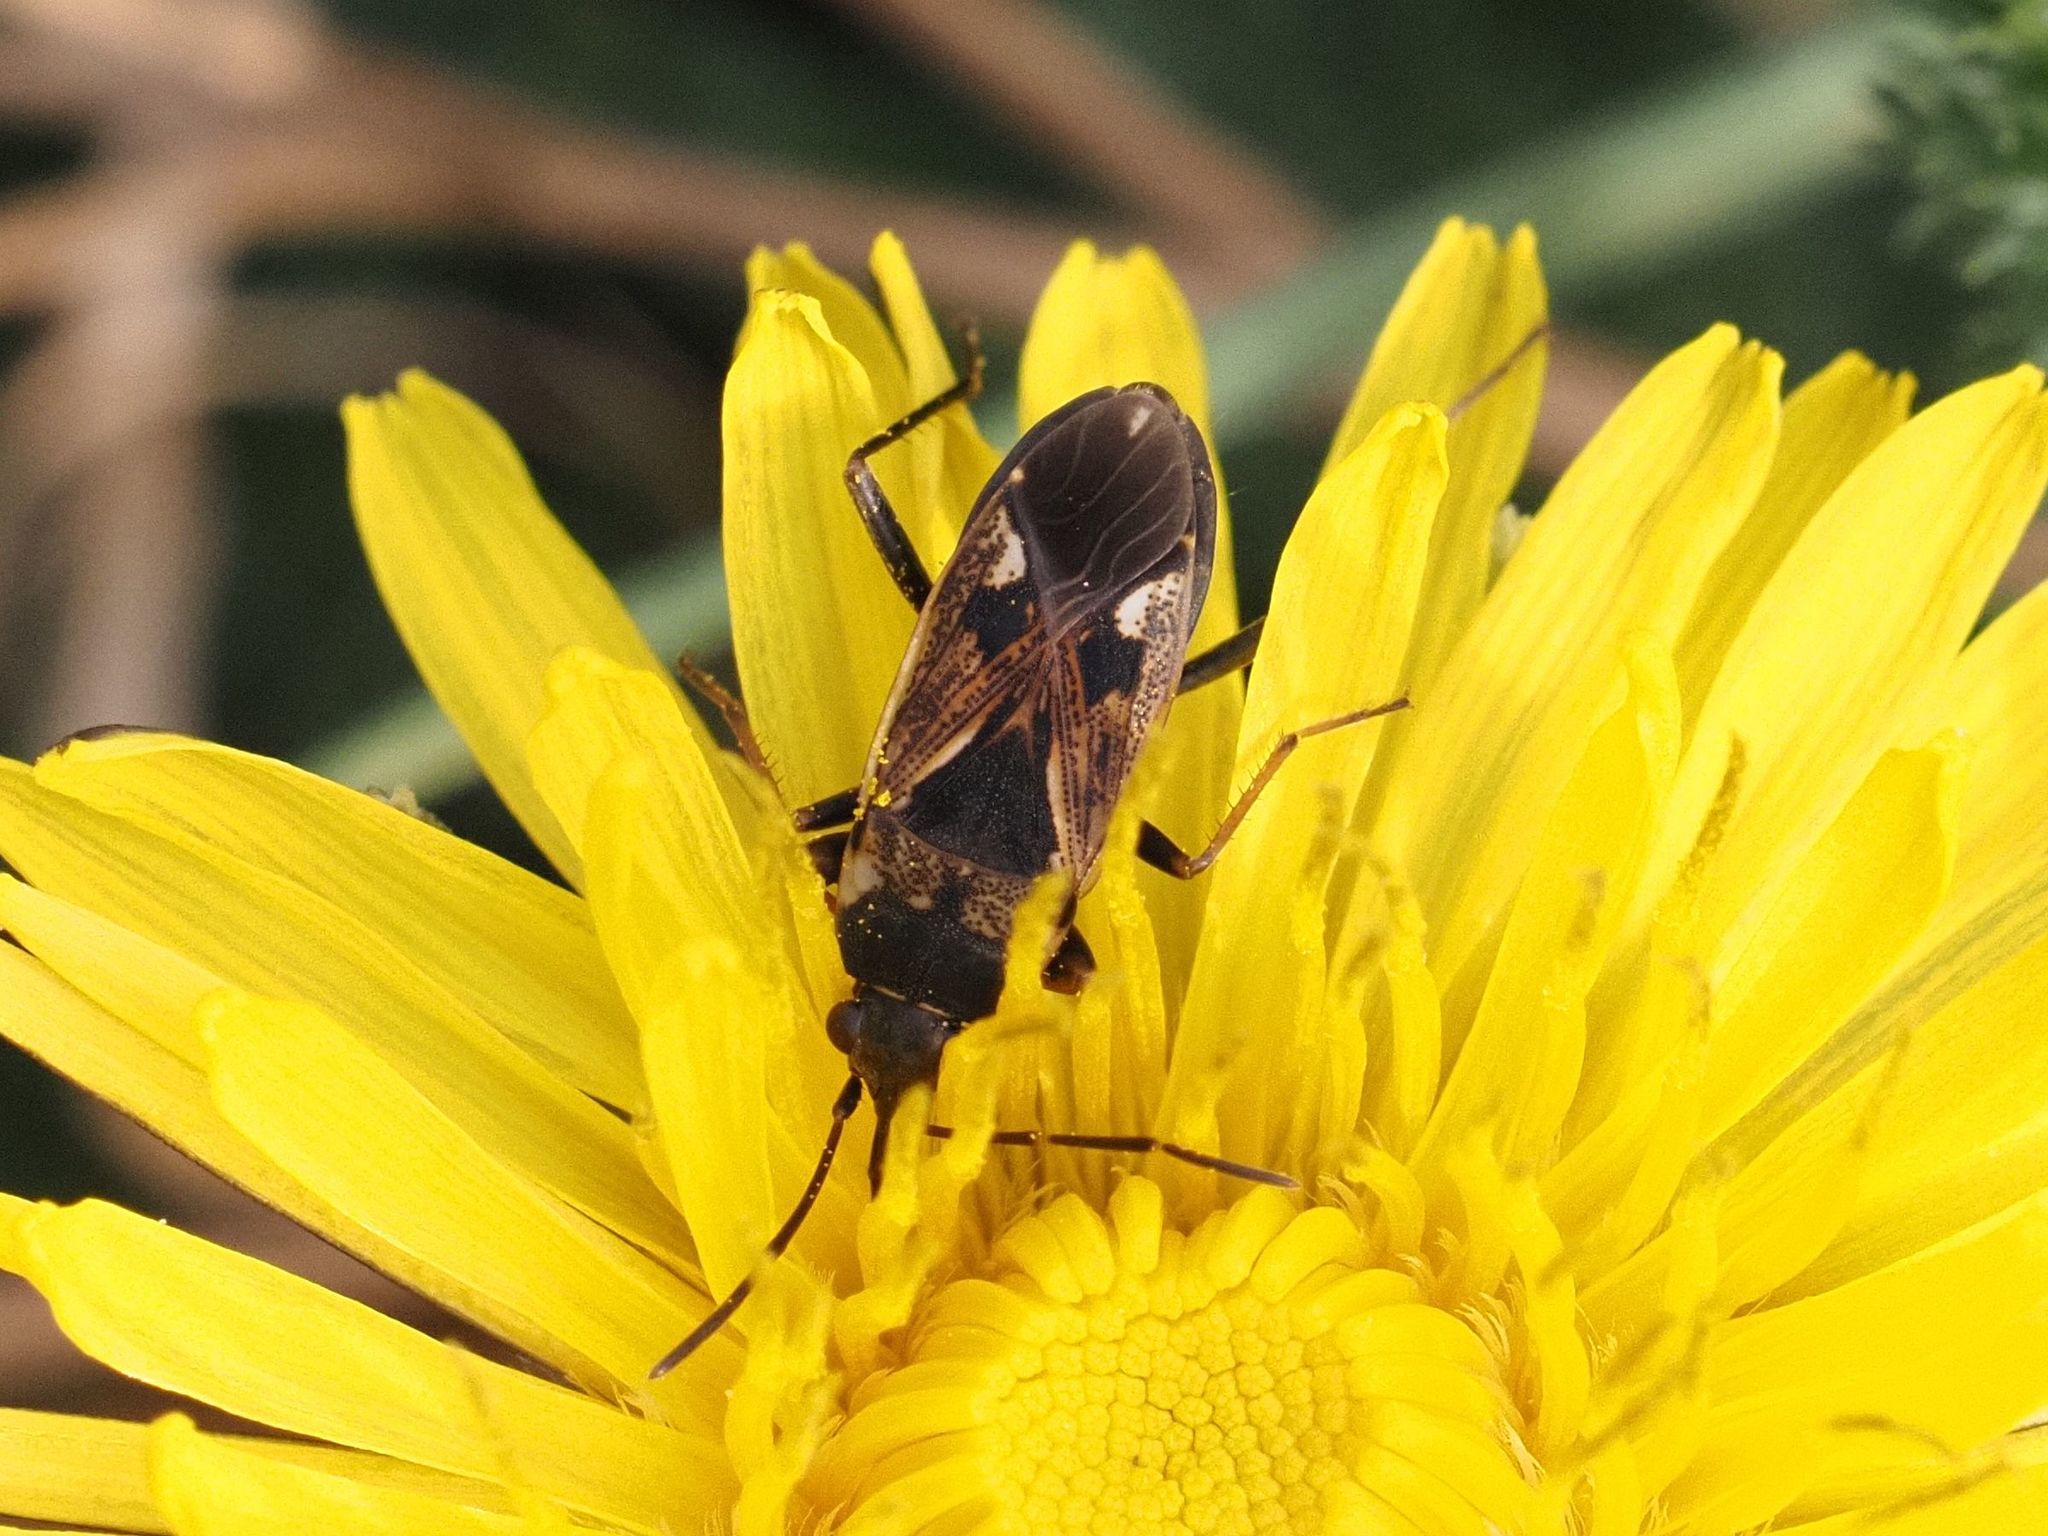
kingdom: Animalia
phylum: Arthropoda
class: Insecta
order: Hemiptera
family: Rhyparochromidae
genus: Rhyparochromus
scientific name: Rhyparochromus vulgaris
